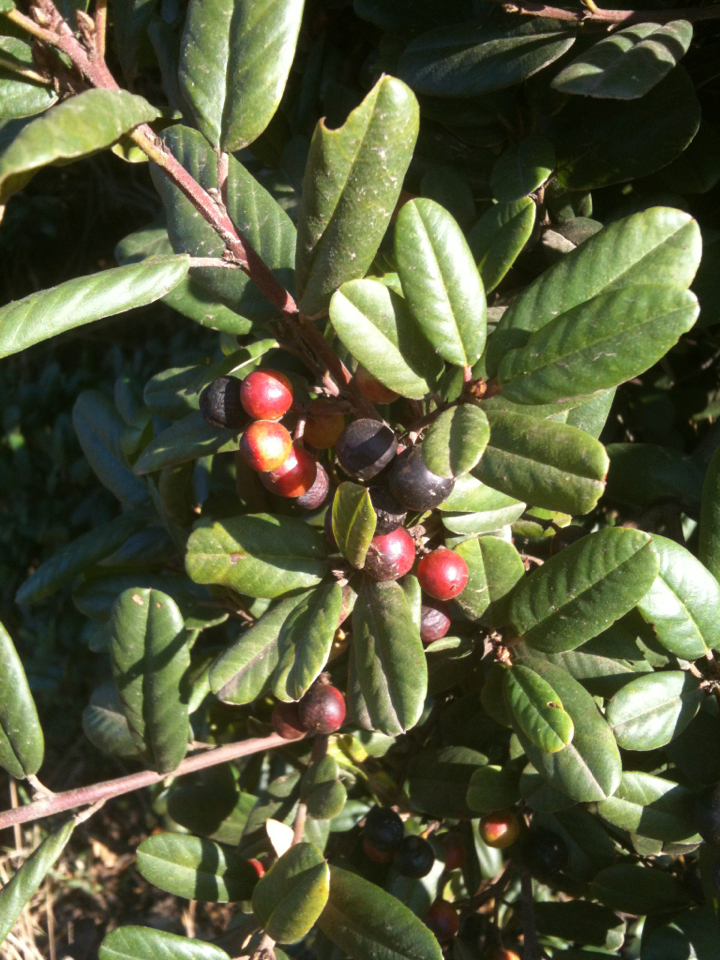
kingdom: Plantae
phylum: Tracheophyta
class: Magnoliopsida
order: Rosales
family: Rhamnaceae
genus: Frangula
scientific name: Frangula californica
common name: California buckthorn
